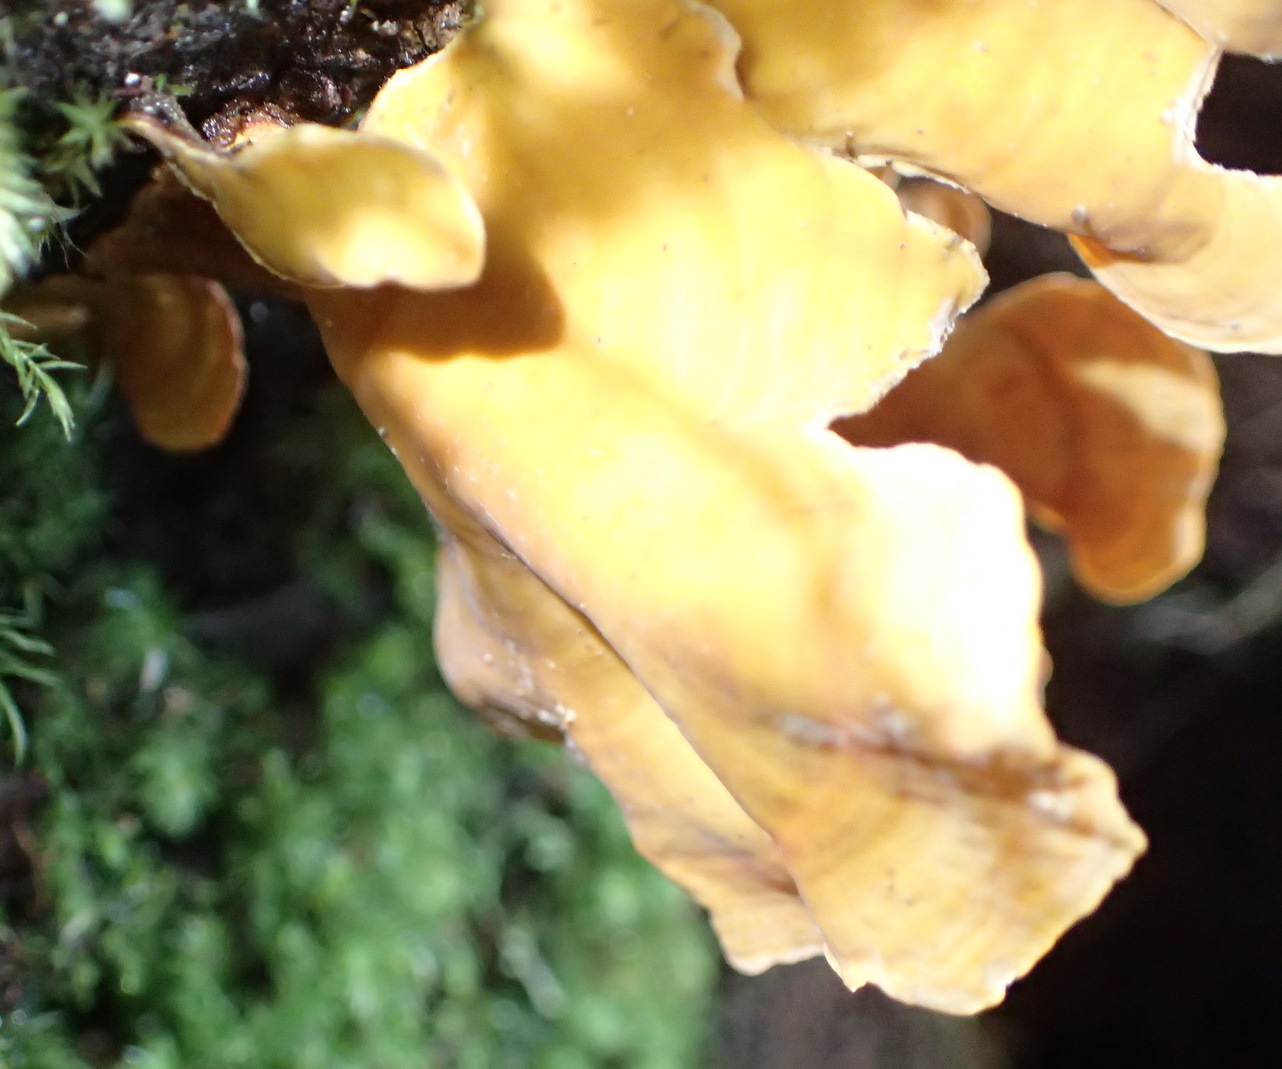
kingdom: Fungi
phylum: Basidiomycota
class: Agaricomycetes
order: Russulales
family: Stereaceae
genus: Stereum
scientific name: Stereum versicolor
